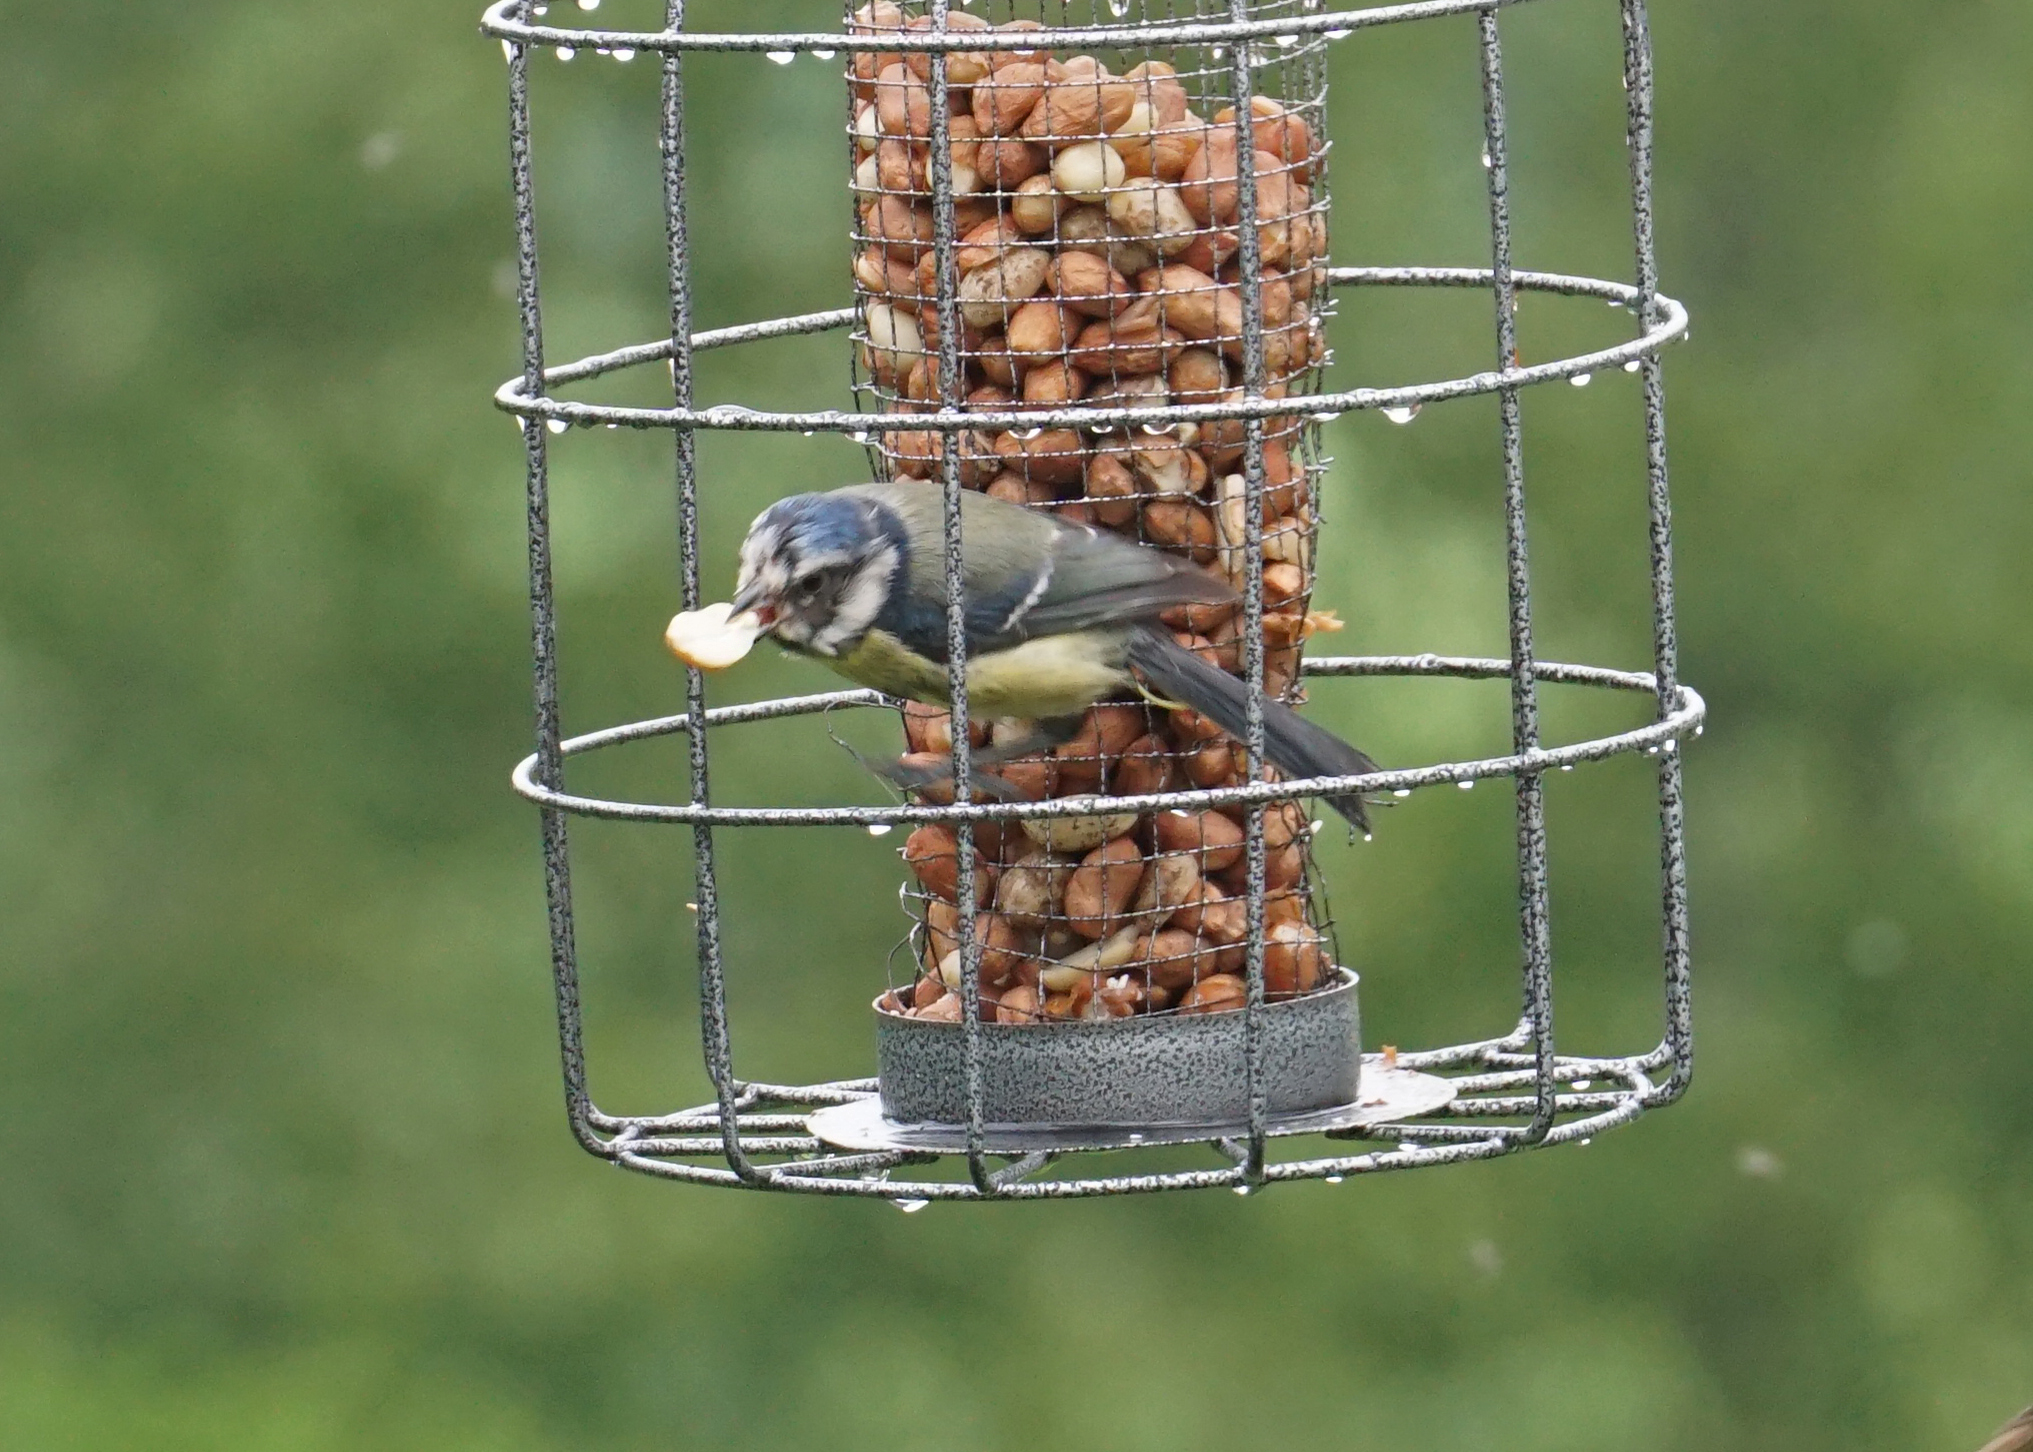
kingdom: Animalia
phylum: Chordata
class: Aves
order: Passeriformes
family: Paridae
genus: Cyanistes
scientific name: Cyanistes caeruleus
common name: Eurasian blue tit
